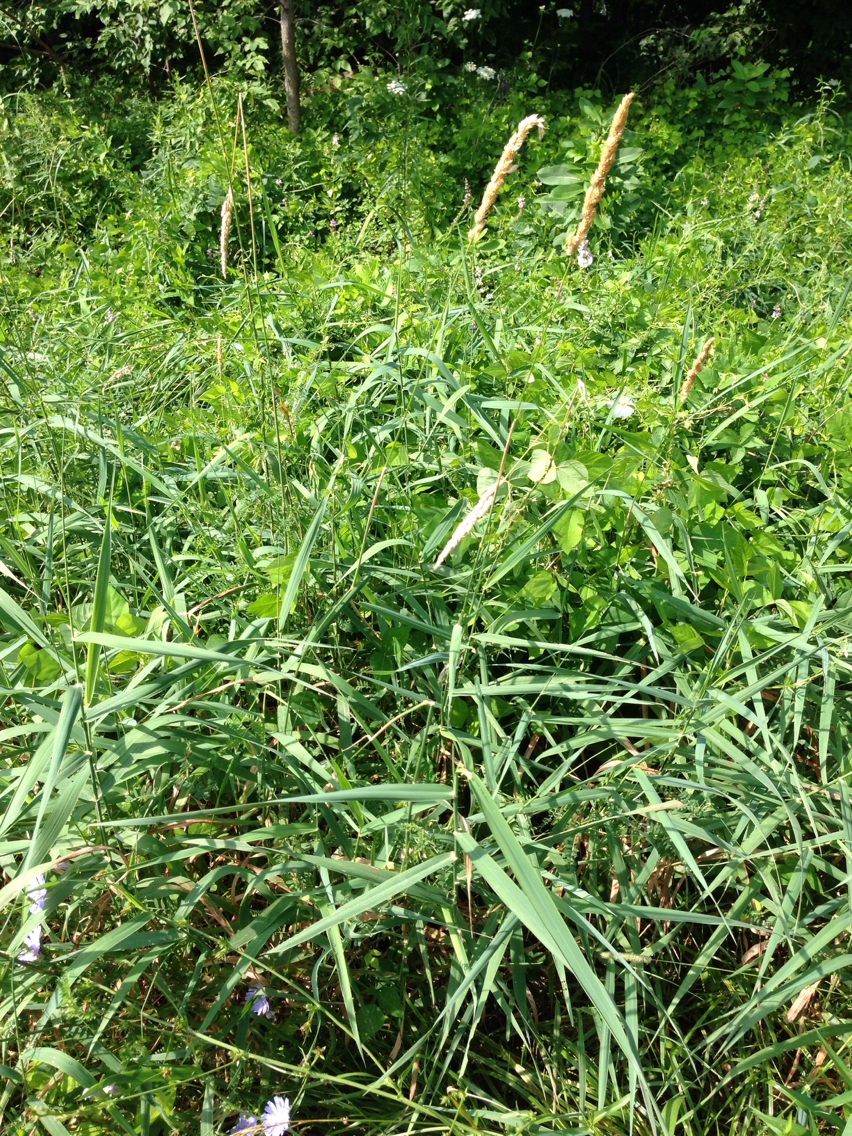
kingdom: Plantae
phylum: Tracheophyta
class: Liliopsida
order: Poales
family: Poaceae
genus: Phalaris
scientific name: Phalaris arundinacea
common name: Reed canary-grass
